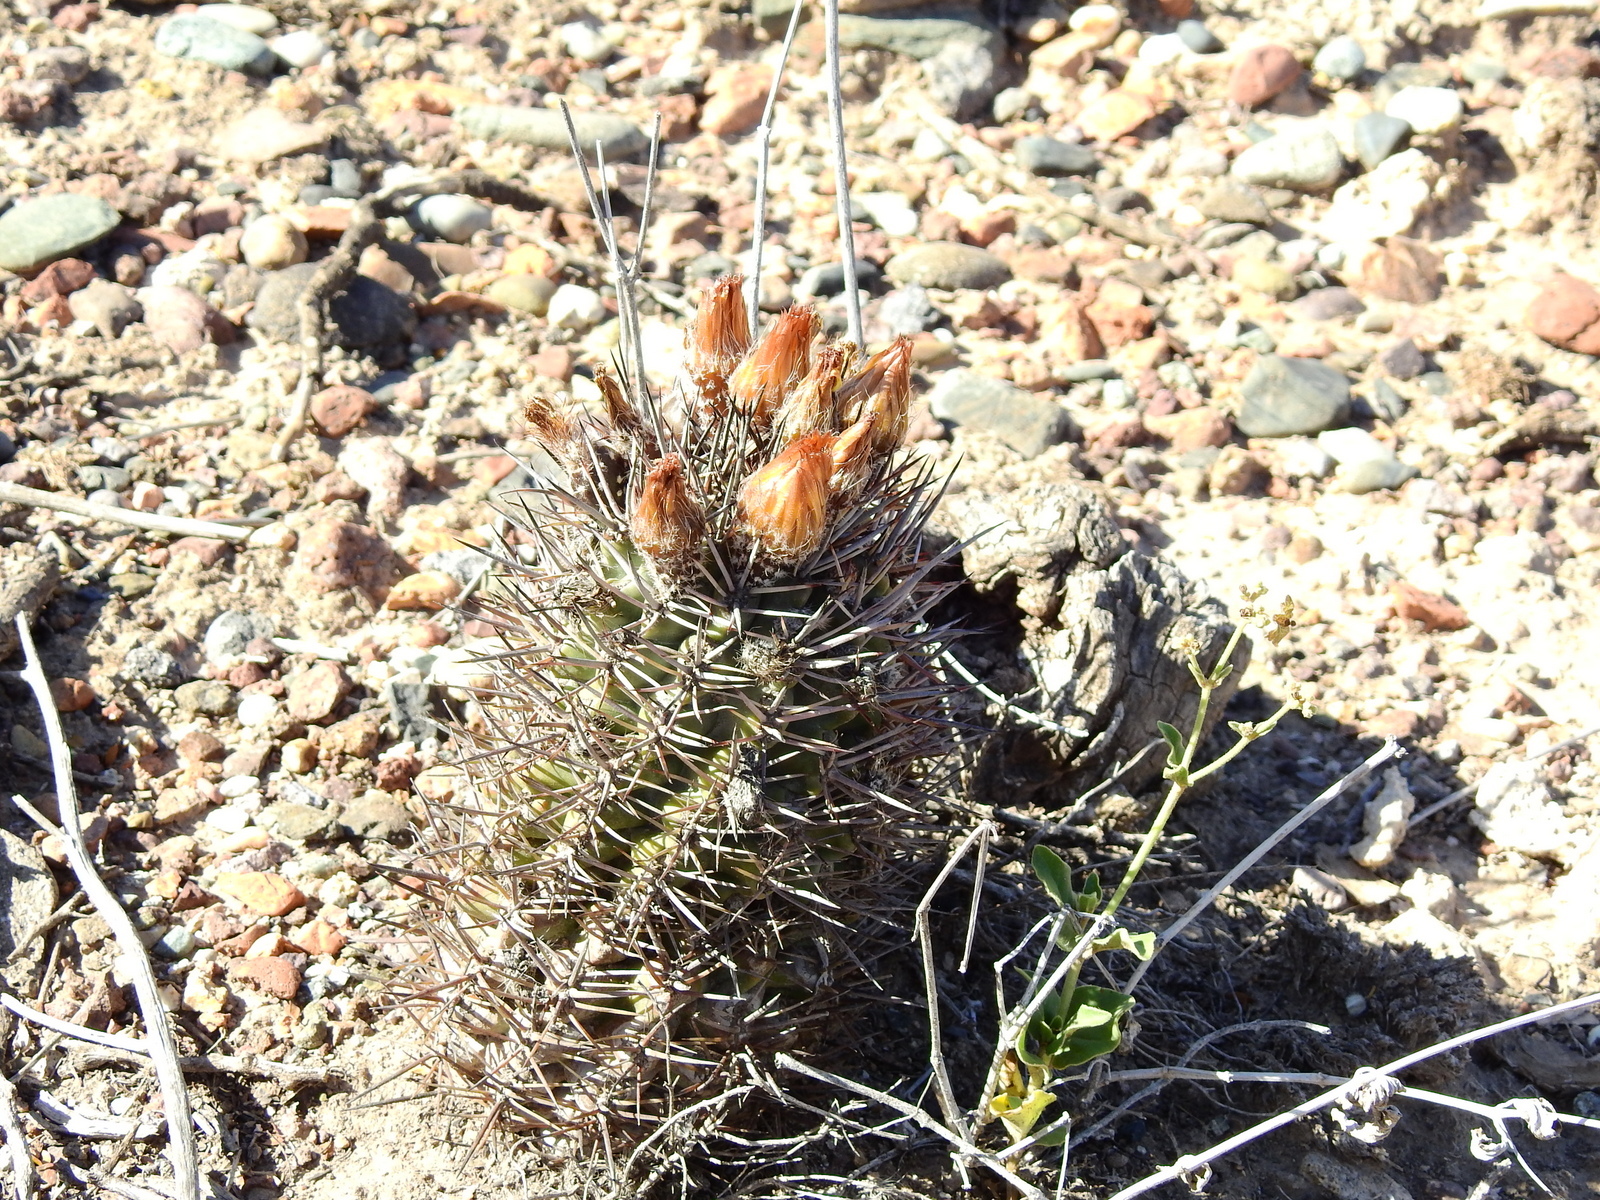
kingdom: Plantae
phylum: Tracheophyta
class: Magnoliopsida
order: Caryophyllales
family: Cactaceae
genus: Eriosyce
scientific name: Eriosyce strausiana
